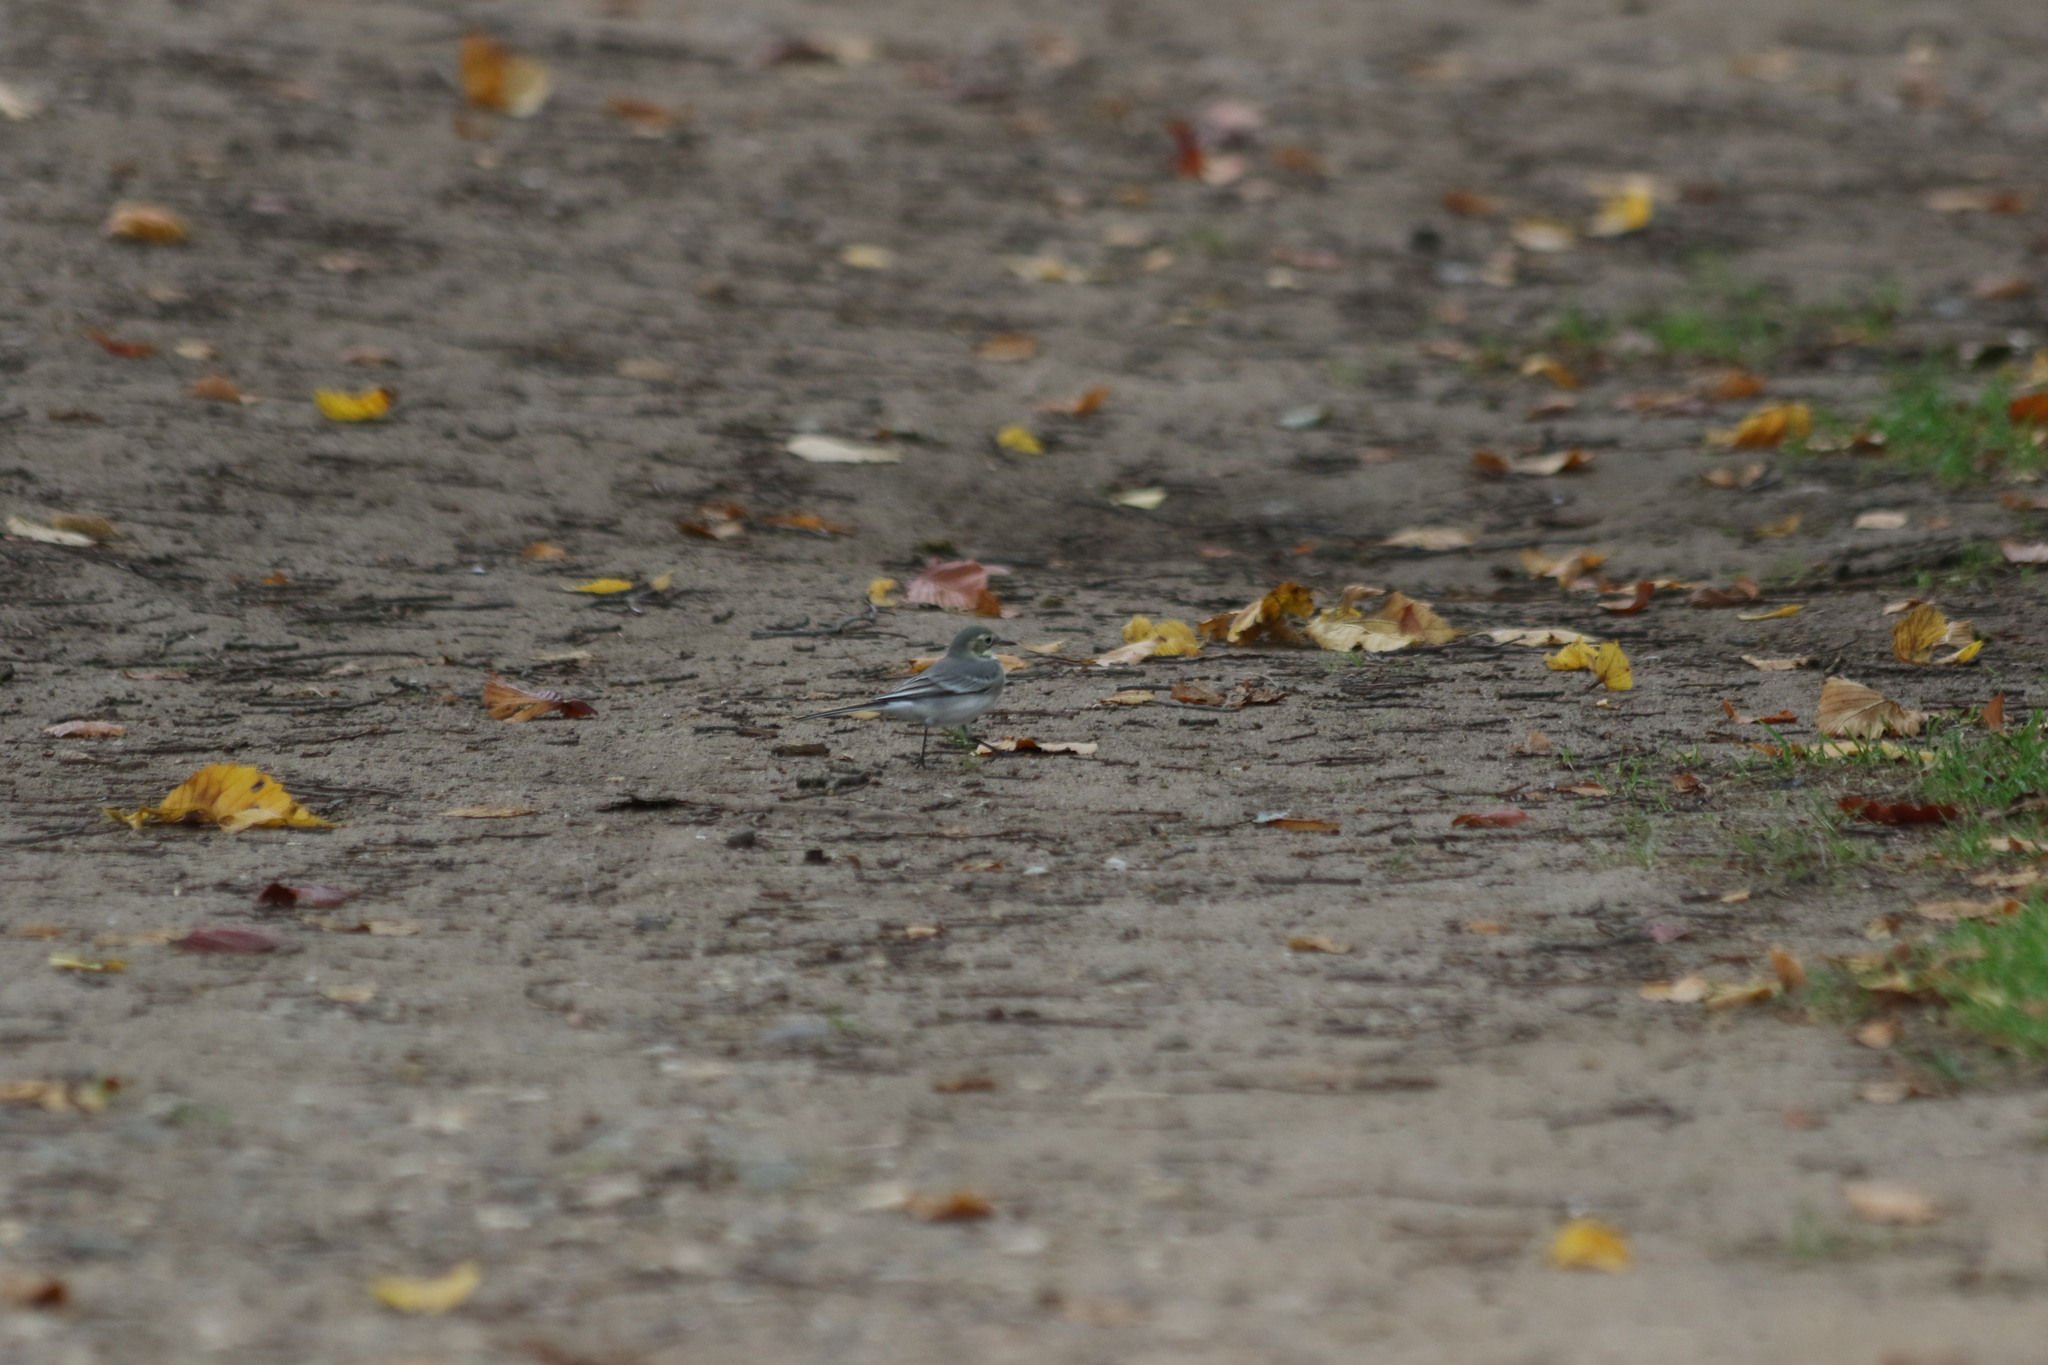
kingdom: Animalia
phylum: Chordata
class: Aves
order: Passeriformes
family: Motacillidae
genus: Motacilla
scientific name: Motacilla alba
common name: White wagtail
